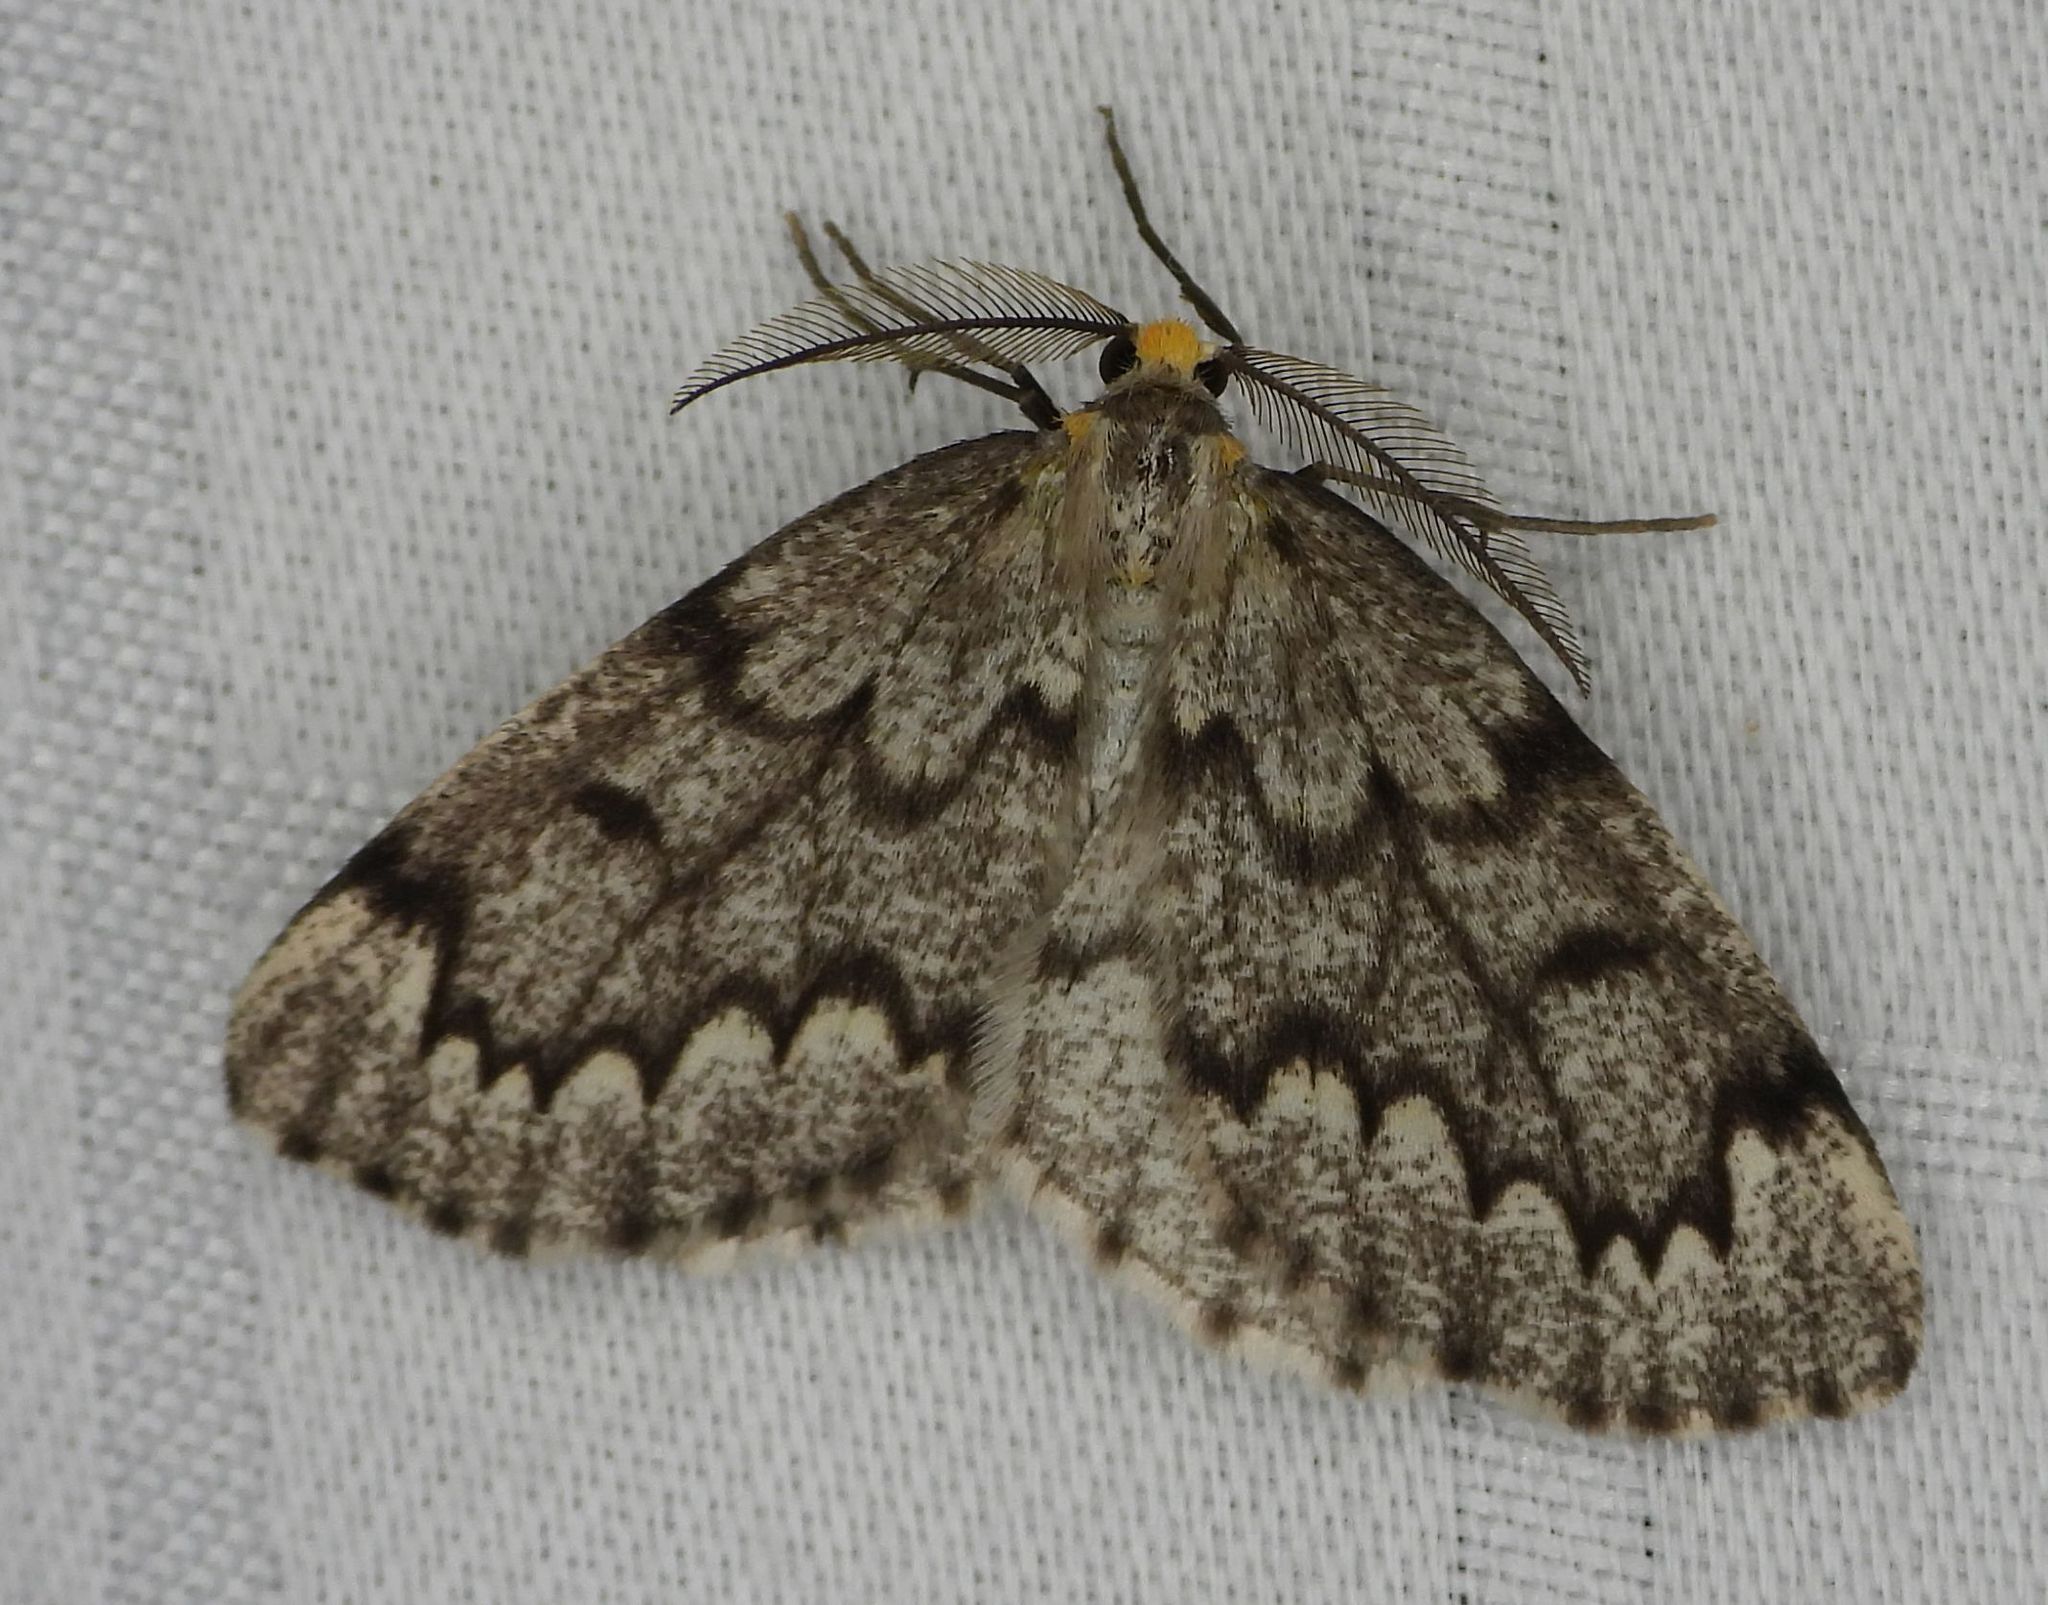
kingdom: Animalia
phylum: Arthropoda
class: Insecta
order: Lepidoptera
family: Geometridae
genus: Nepytia
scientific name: Nepytia canosaria
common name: False hemlock looper
